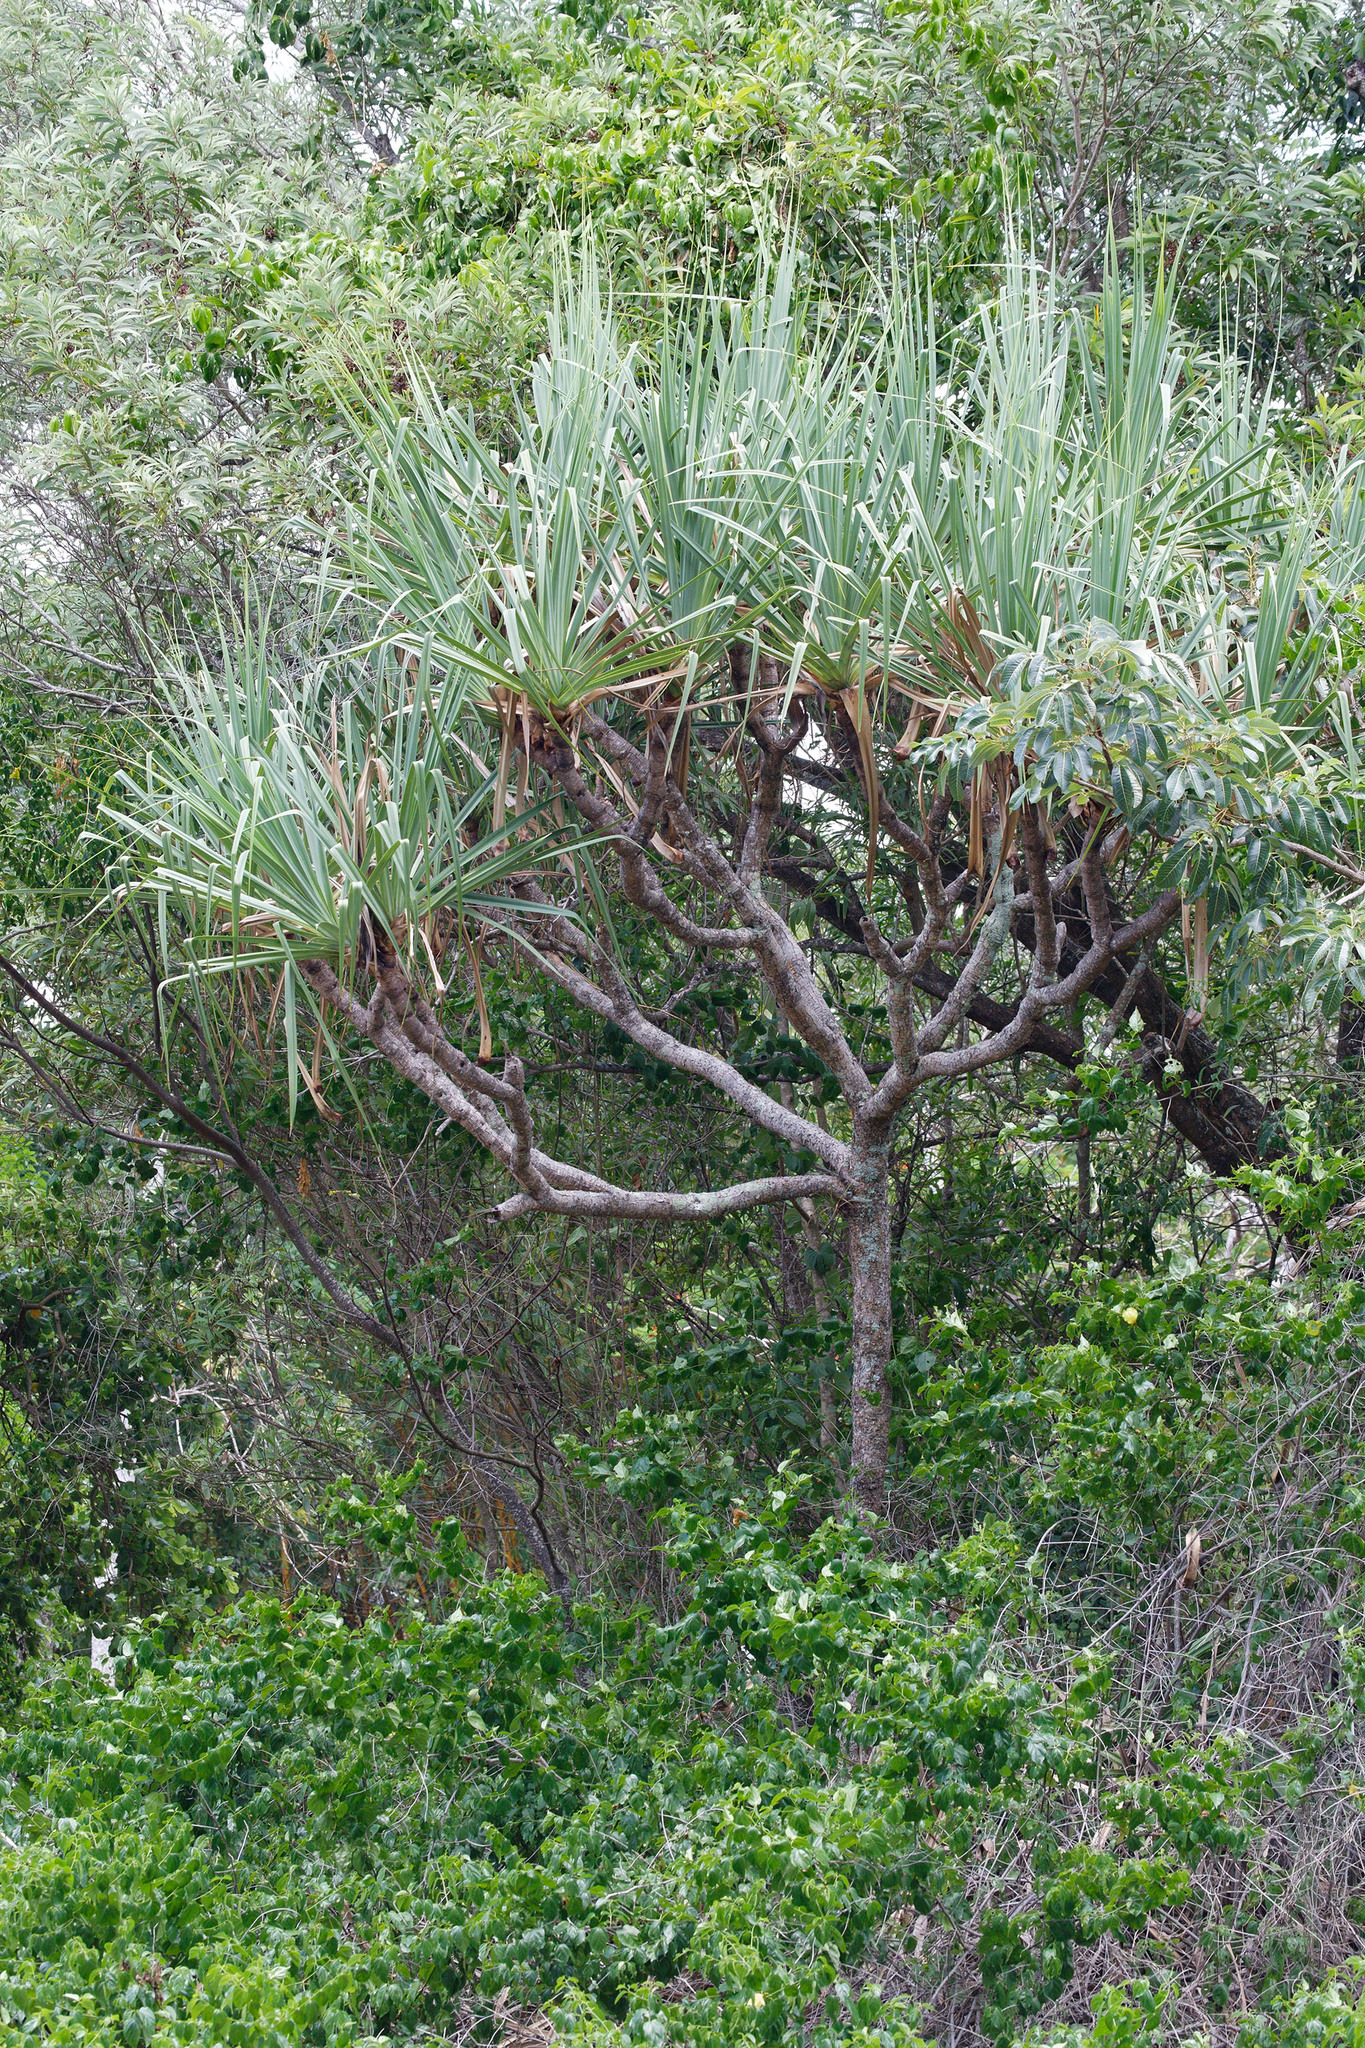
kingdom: Plantae
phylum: Tracheophyta
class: Liliopsida
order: Pandanales
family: Pandanaceae
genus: Pandanus
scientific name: Pandanus cookii
